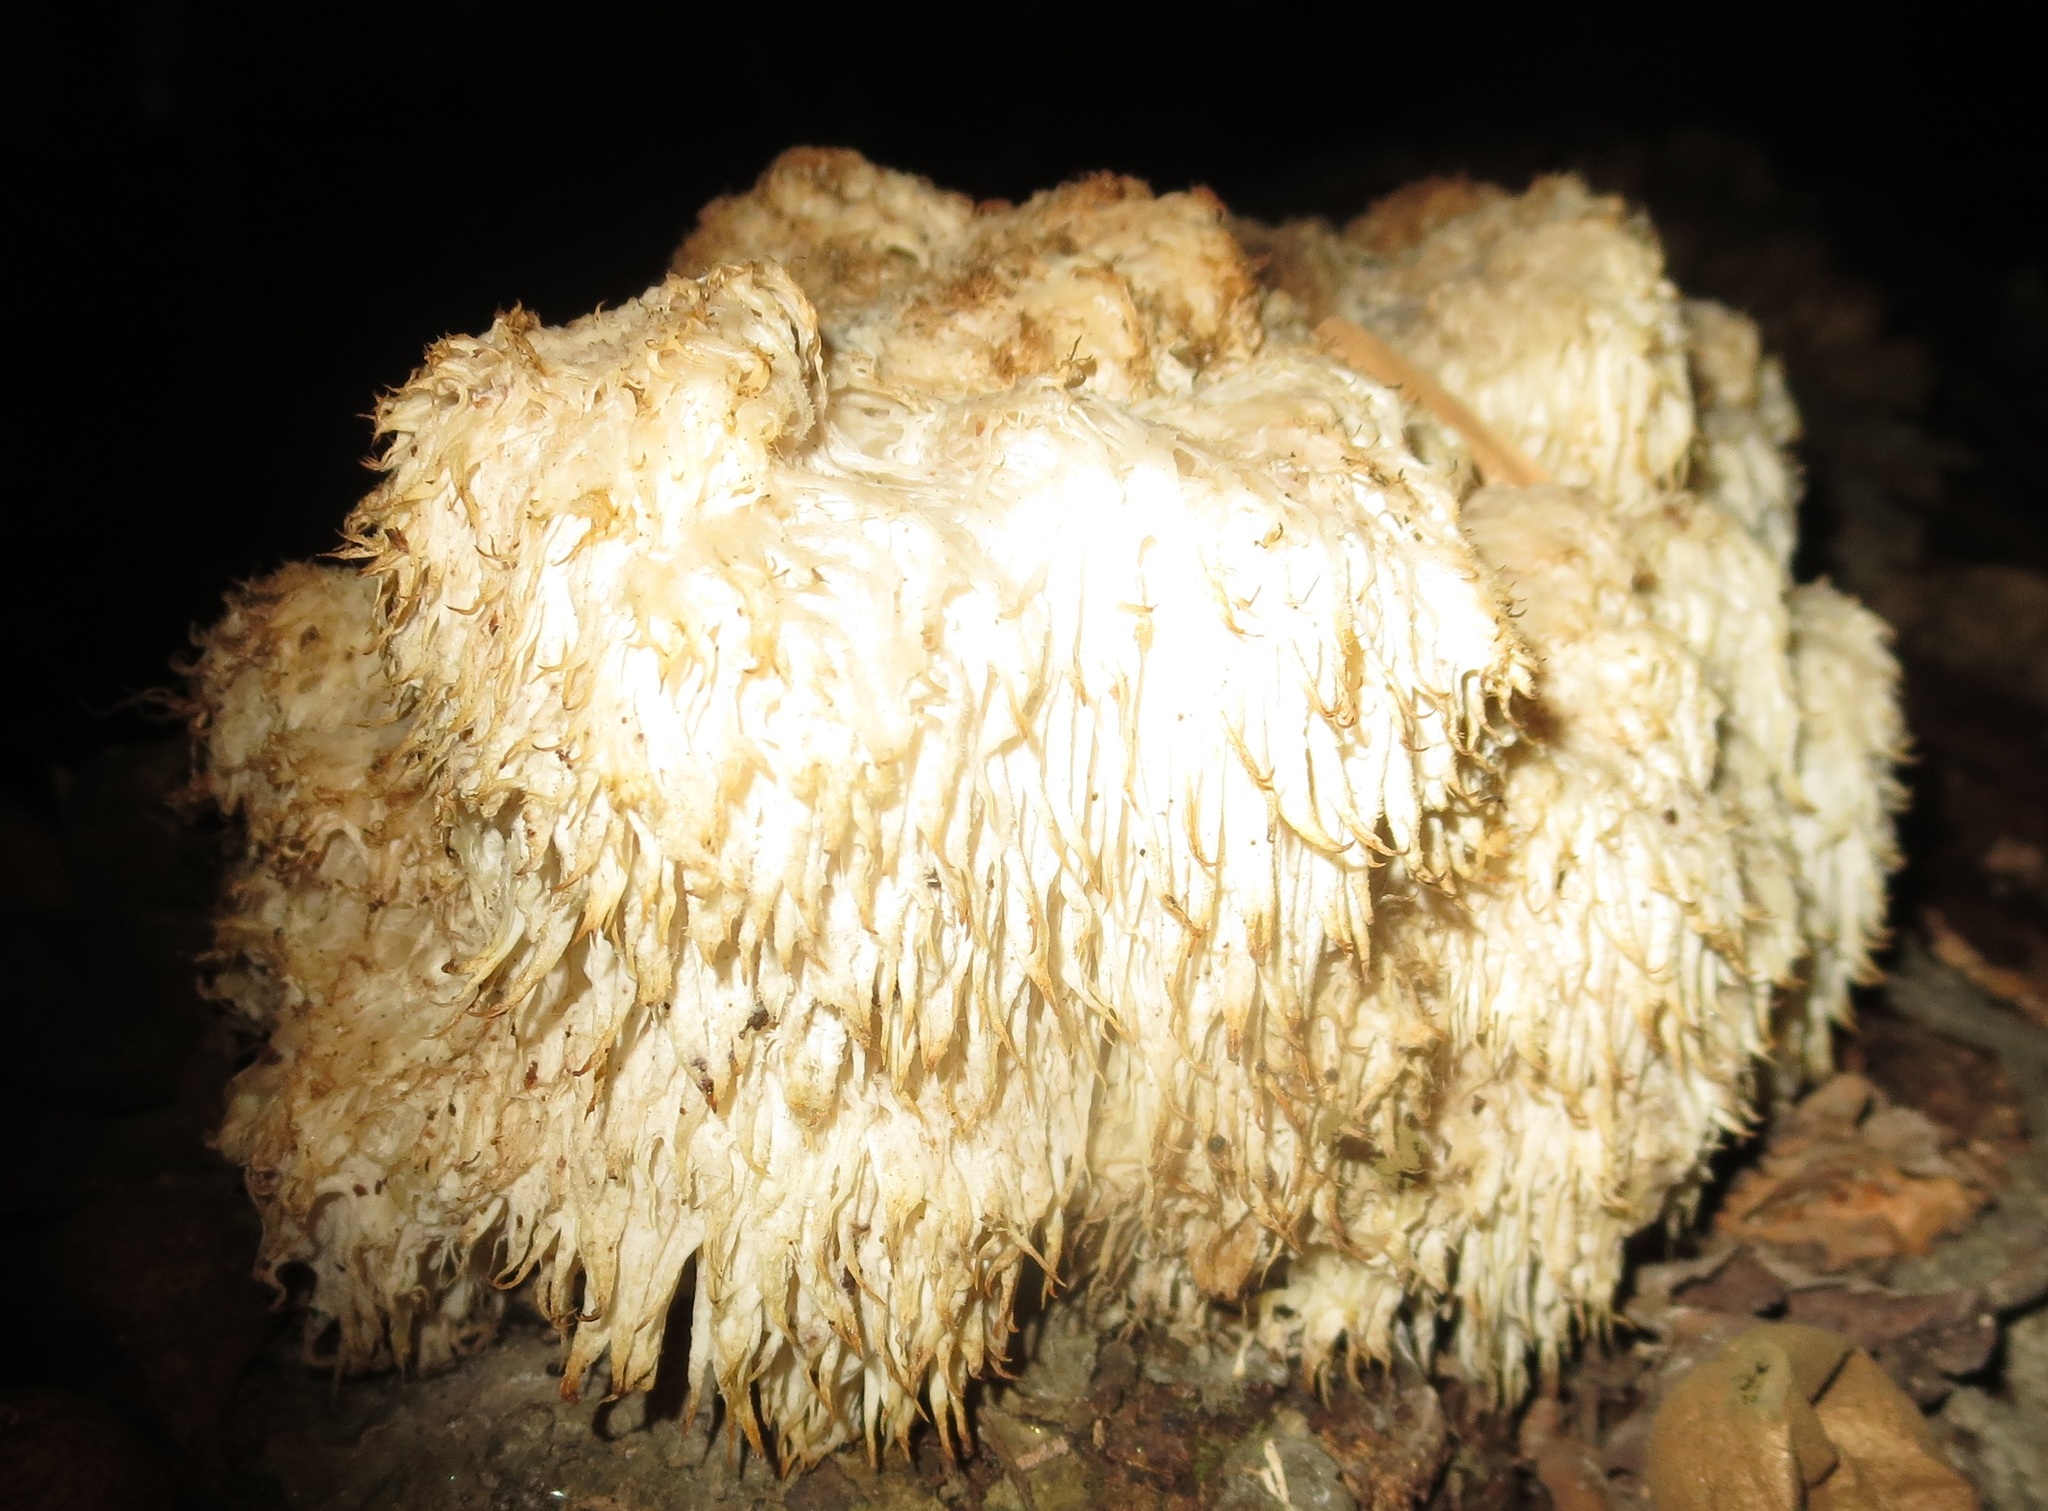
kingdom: Fungi
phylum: Basidiomycota
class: Agaricomycetes
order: Russulales
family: Hericiaceae
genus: Hericium
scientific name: Hericium erinaceus
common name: Bearded tooth
